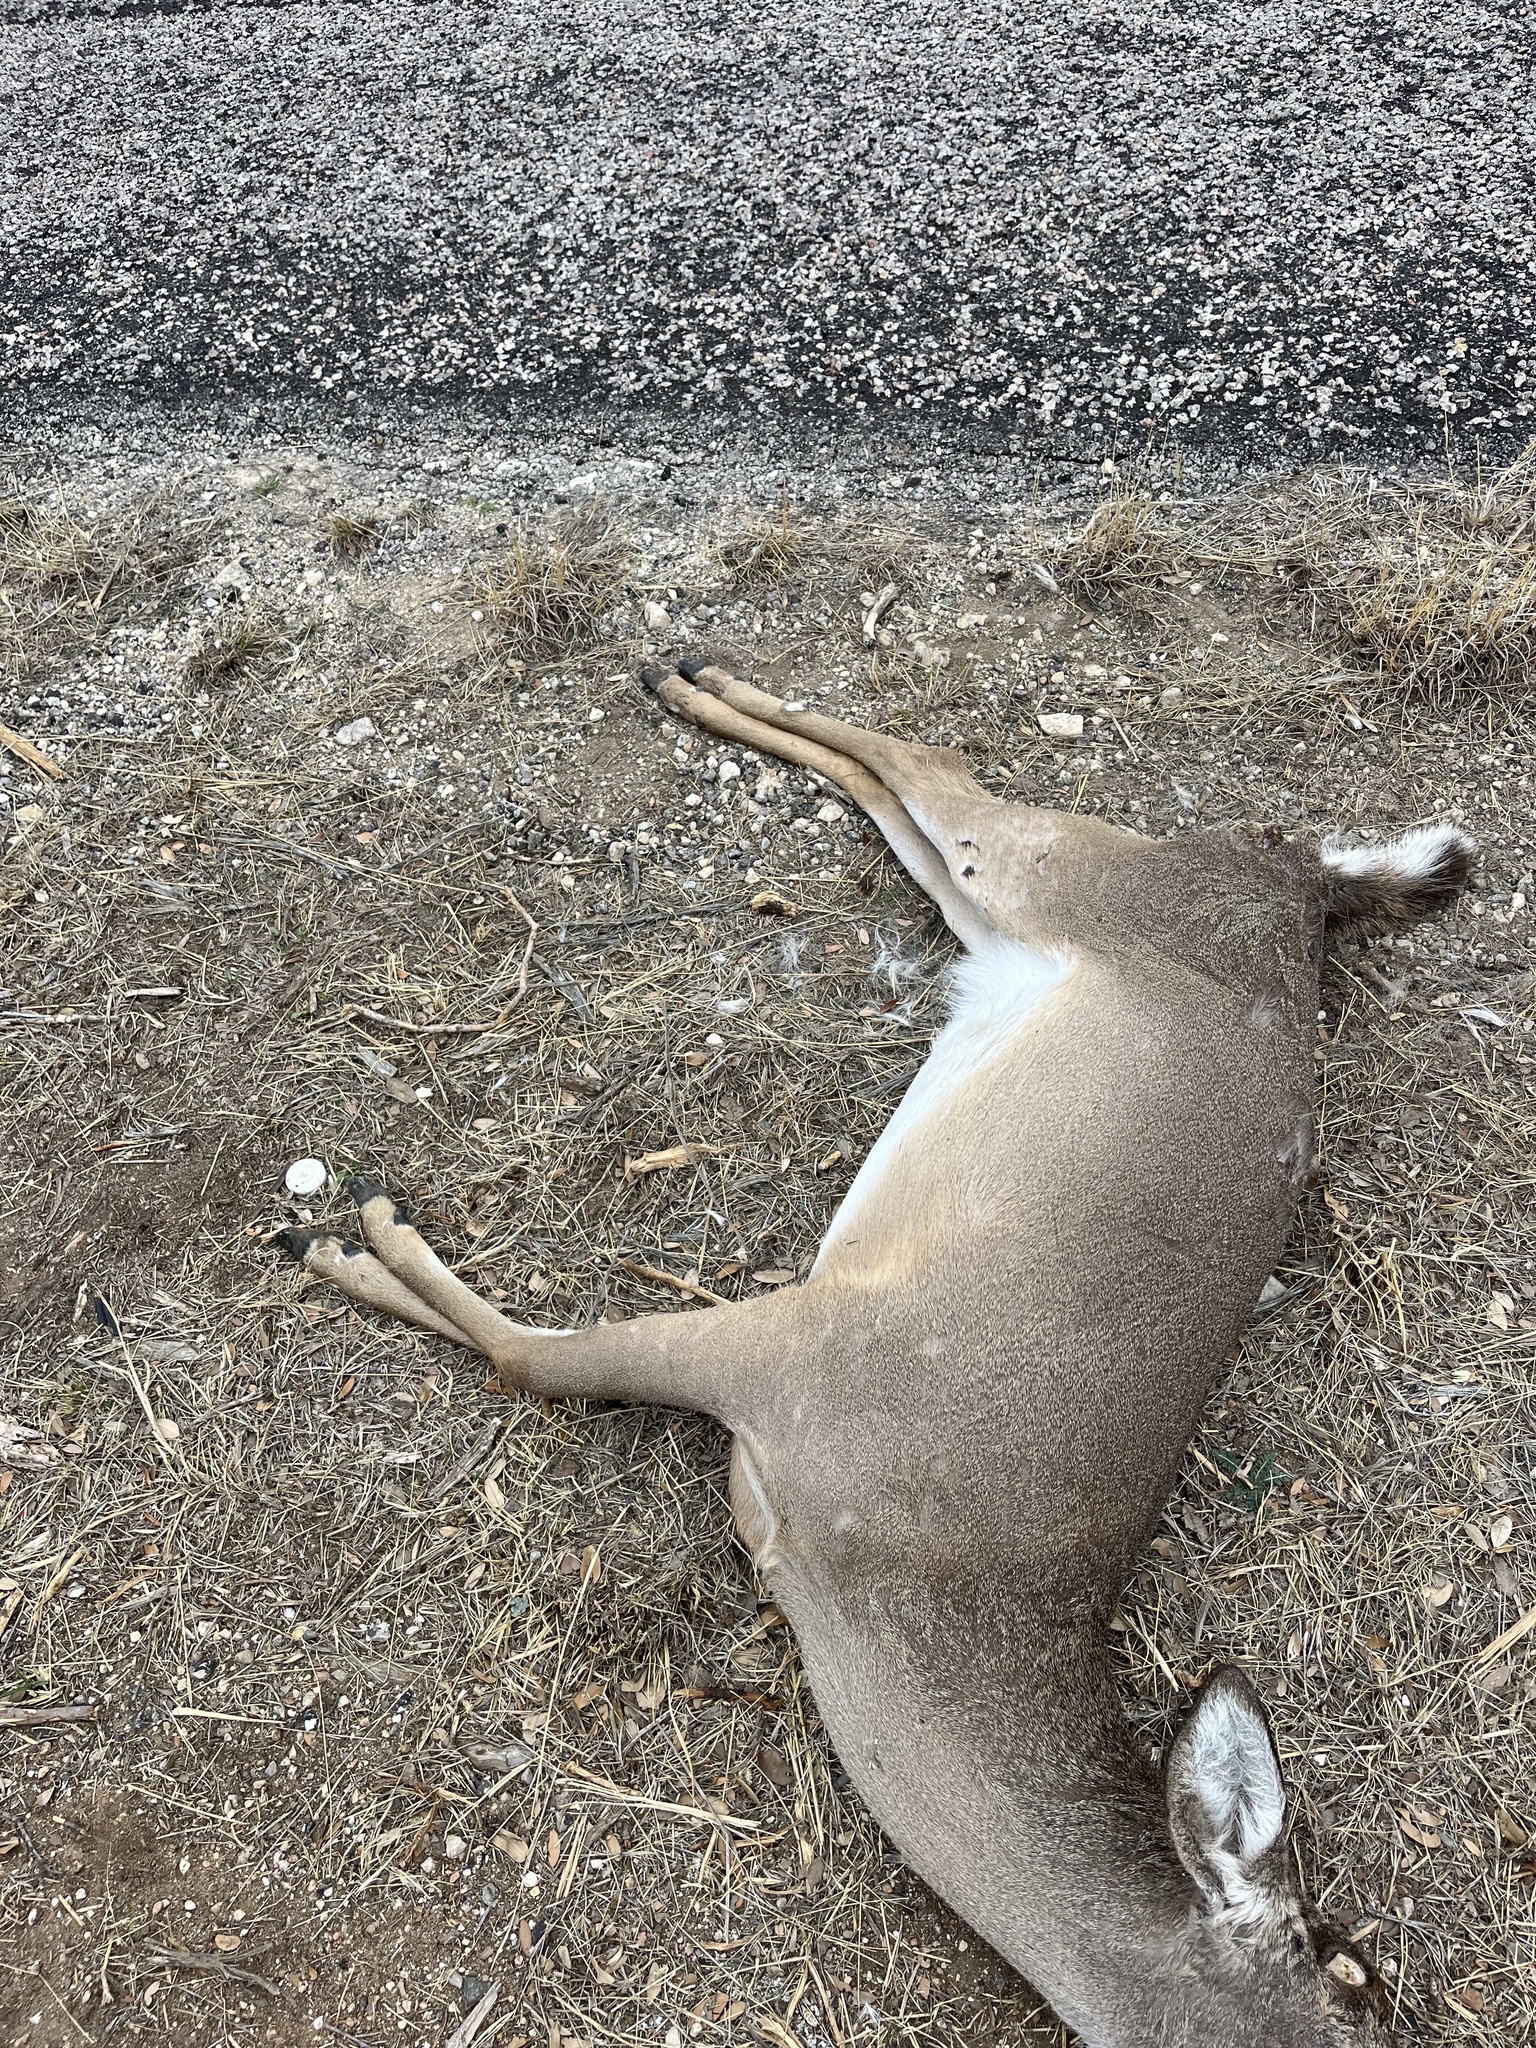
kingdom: Animalia
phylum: Chordata
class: Mammalia
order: Artiodactyla
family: Cervidae
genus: Odocoileus
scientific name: Odocoileus virginianus
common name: White-tailed deer
